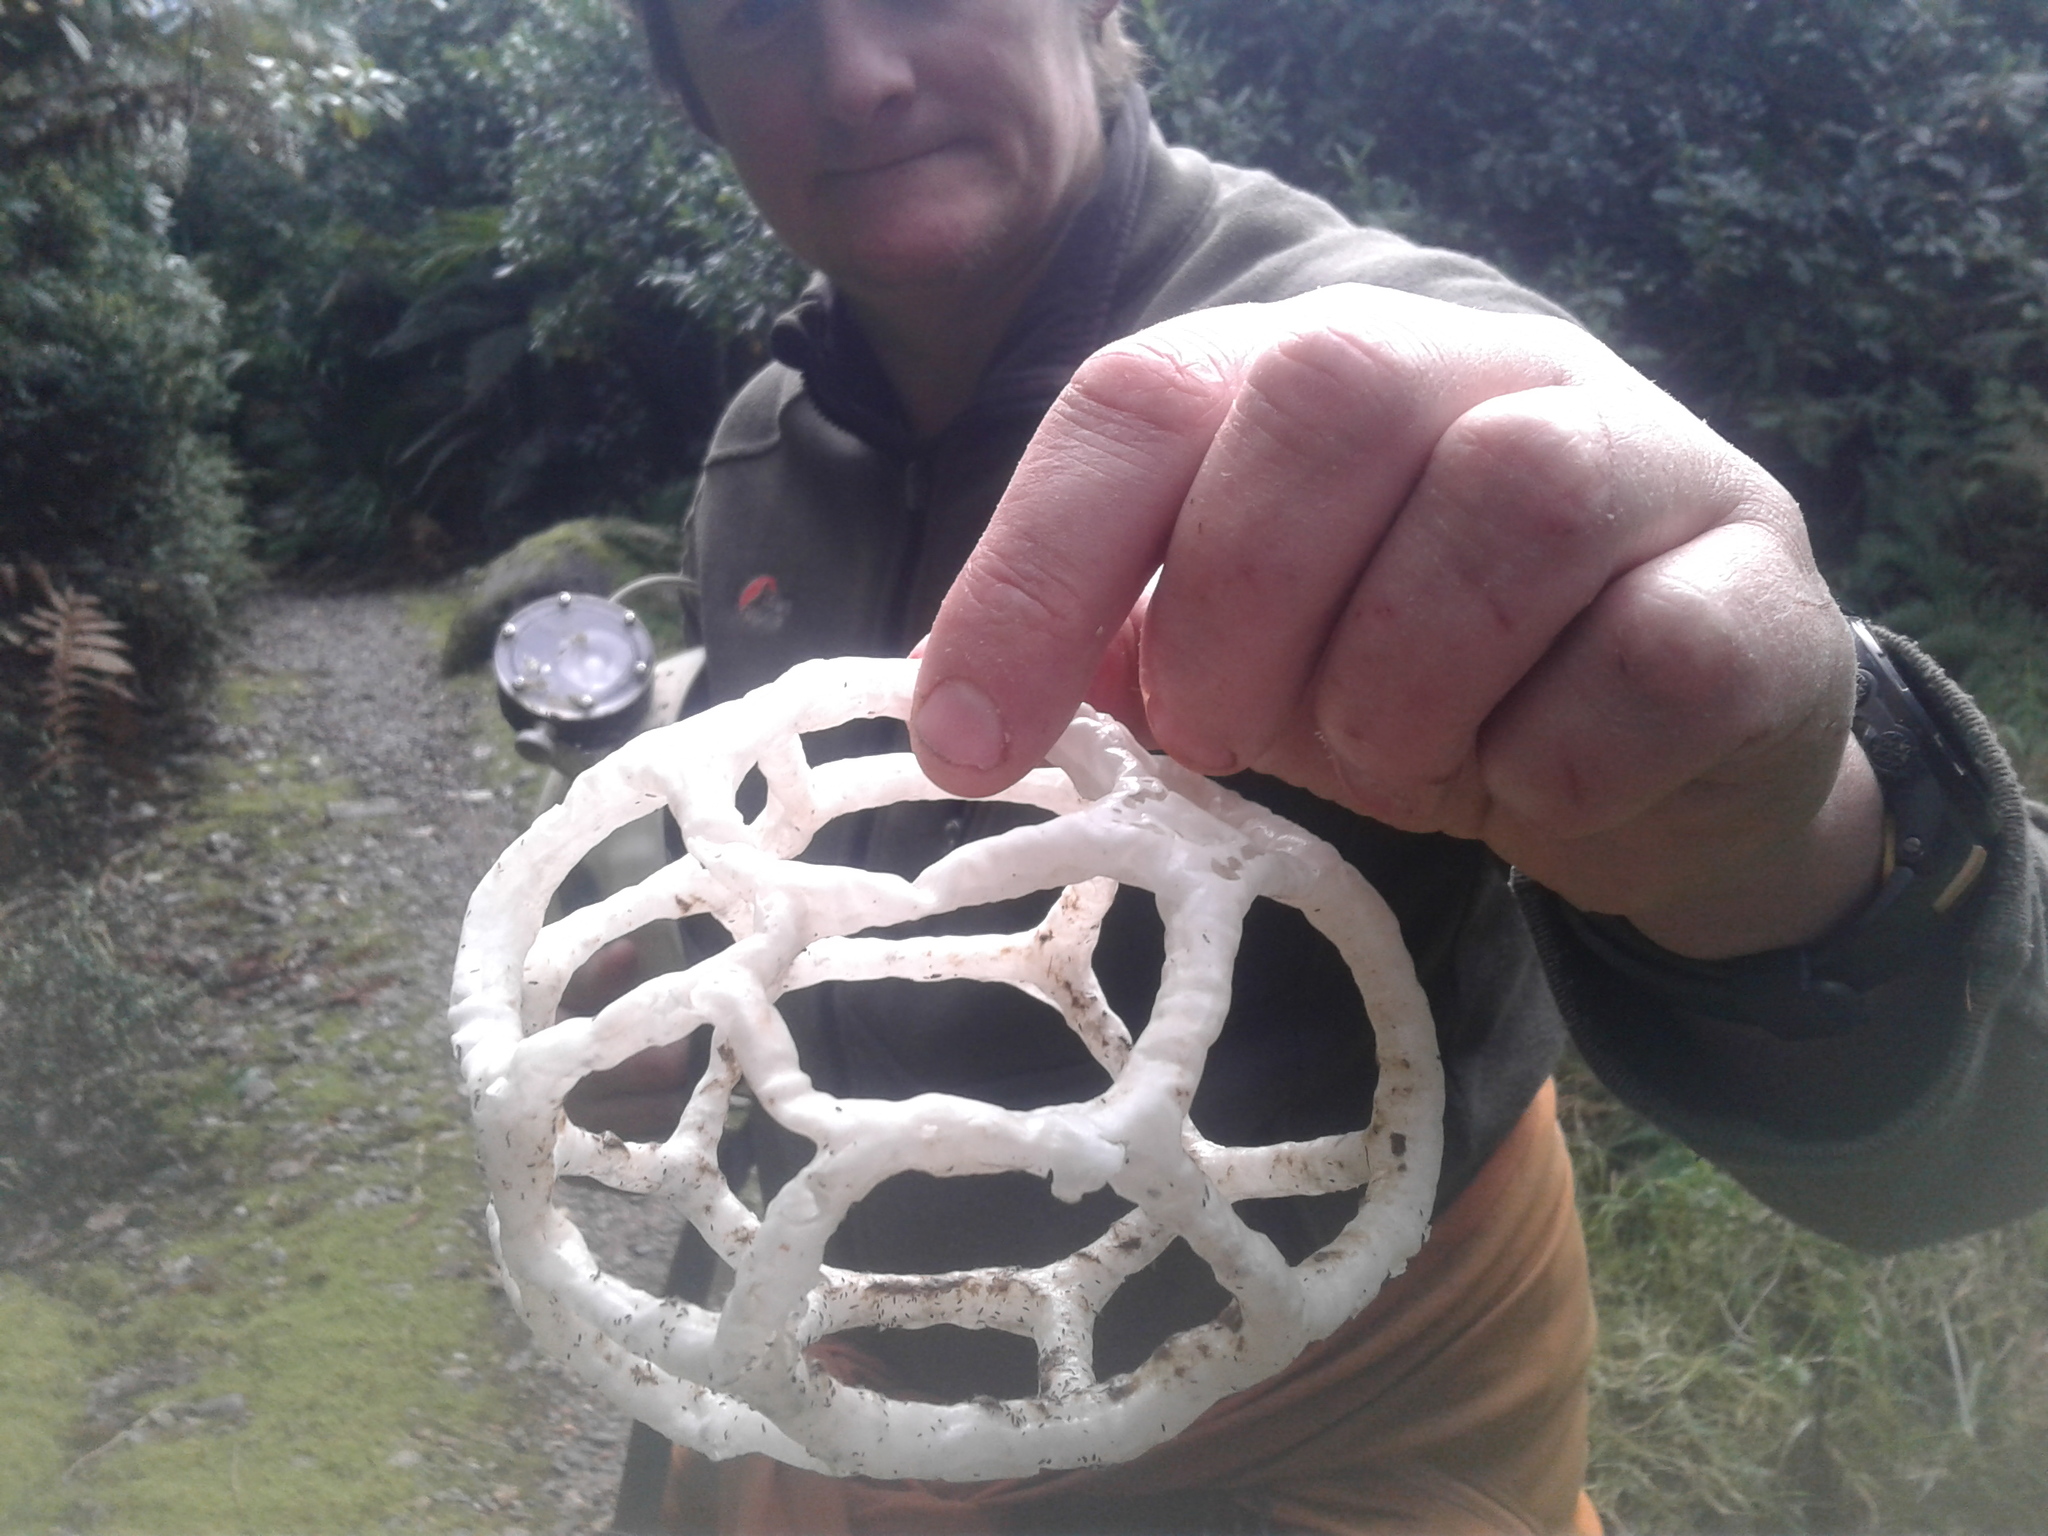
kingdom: Fungi
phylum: Basidiomycota
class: Agaricomycetes
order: Phallales
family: Phallaceae
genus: Ileodictyon
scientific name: Ileodictyon cibarium
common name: Basket fungus
